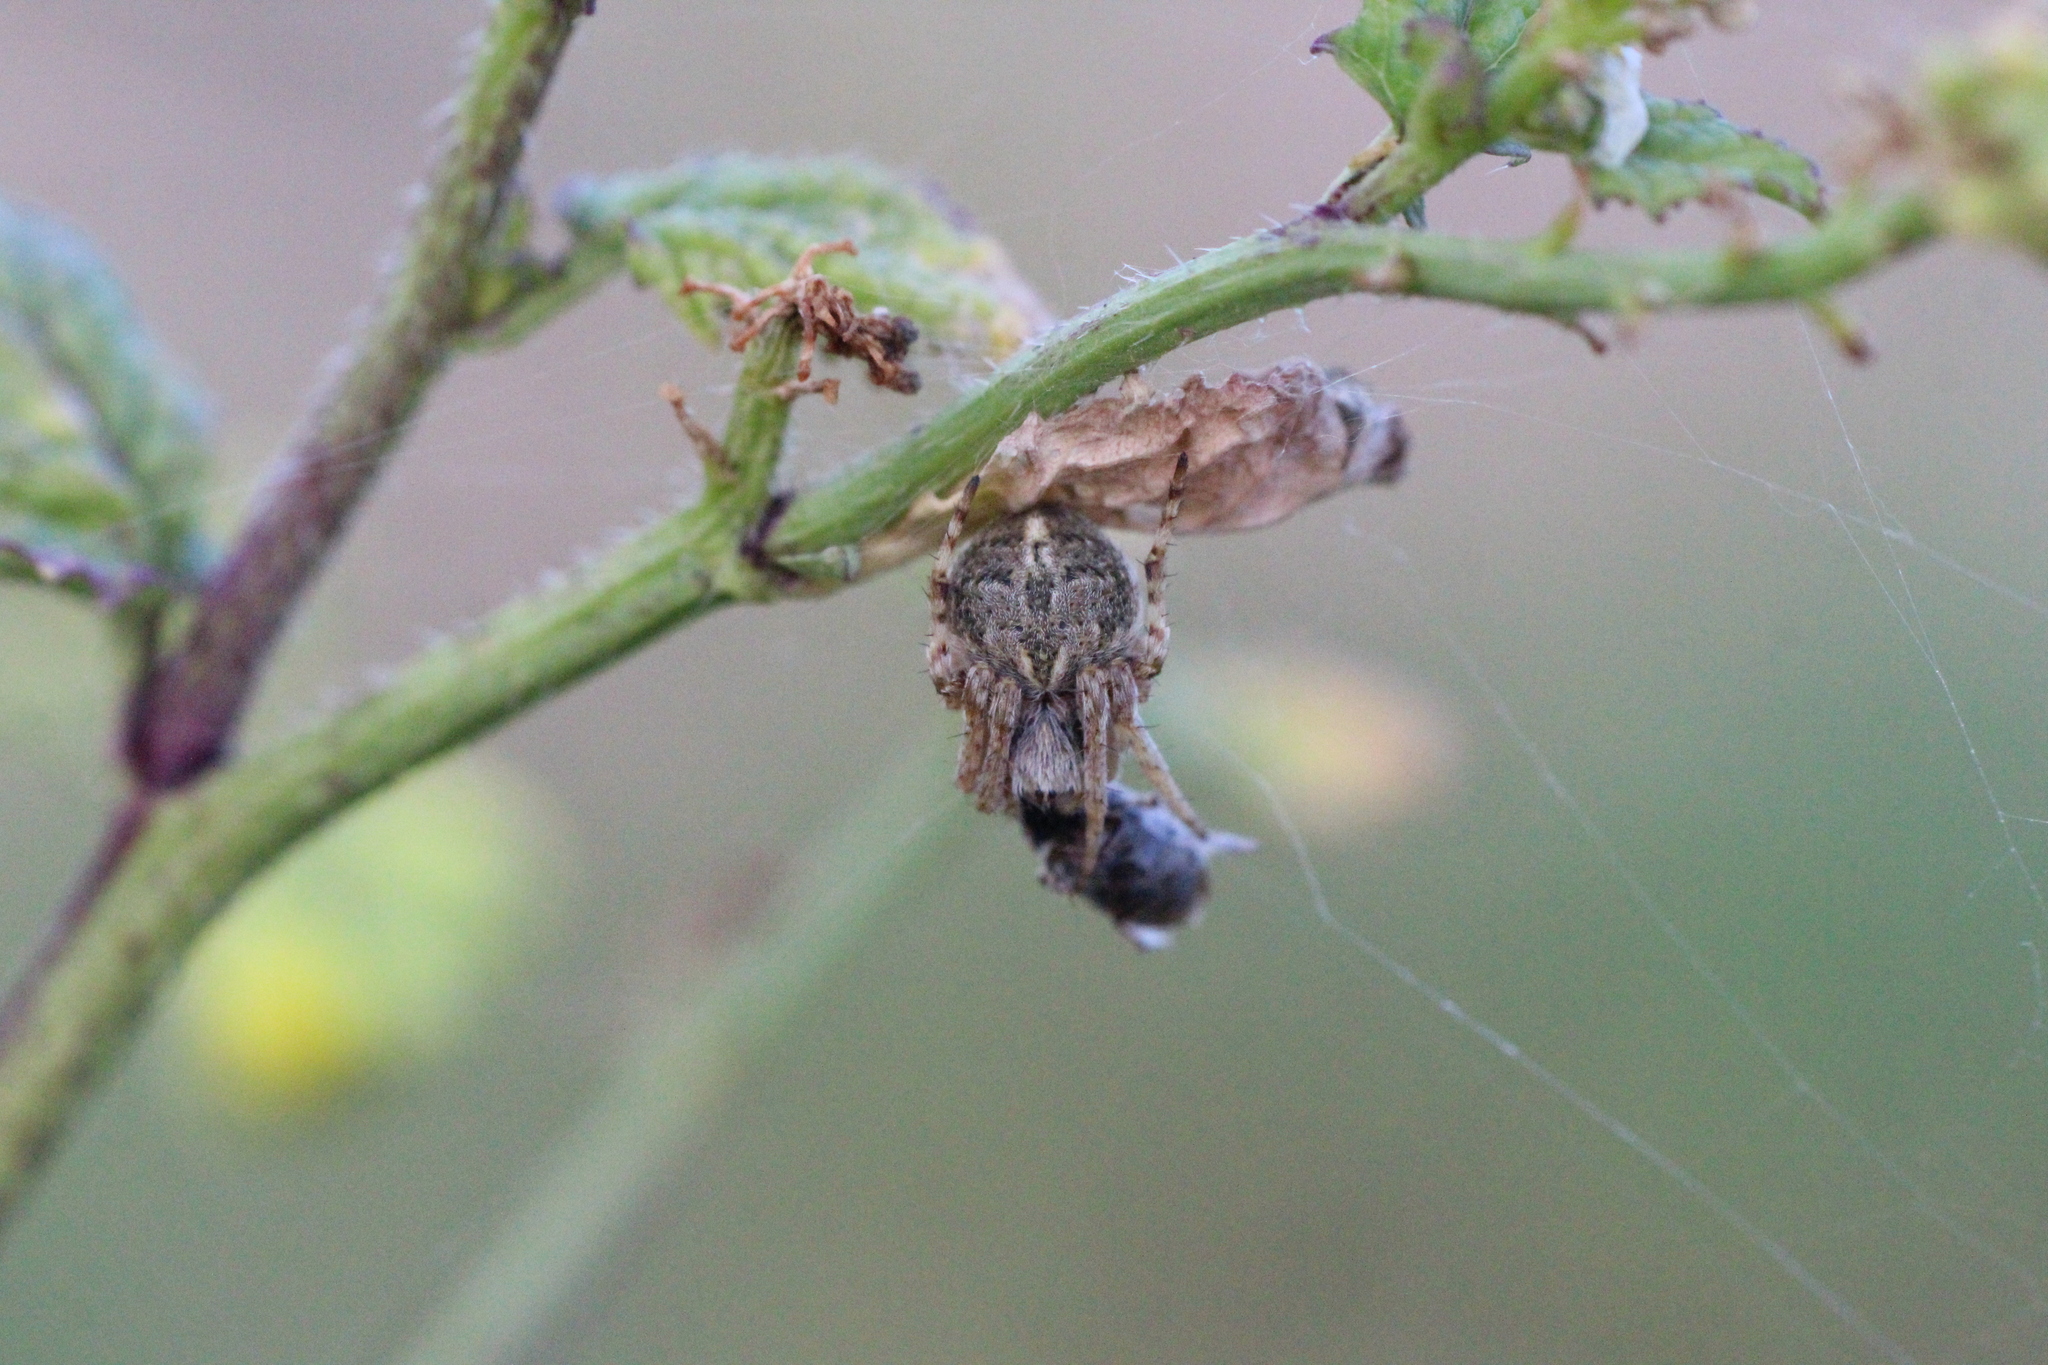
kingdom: Animalia
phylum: Arthropoda
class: Arachnida
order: Araneae
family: Araneidae
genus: Agalenatea
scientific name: Agalenatea redii
